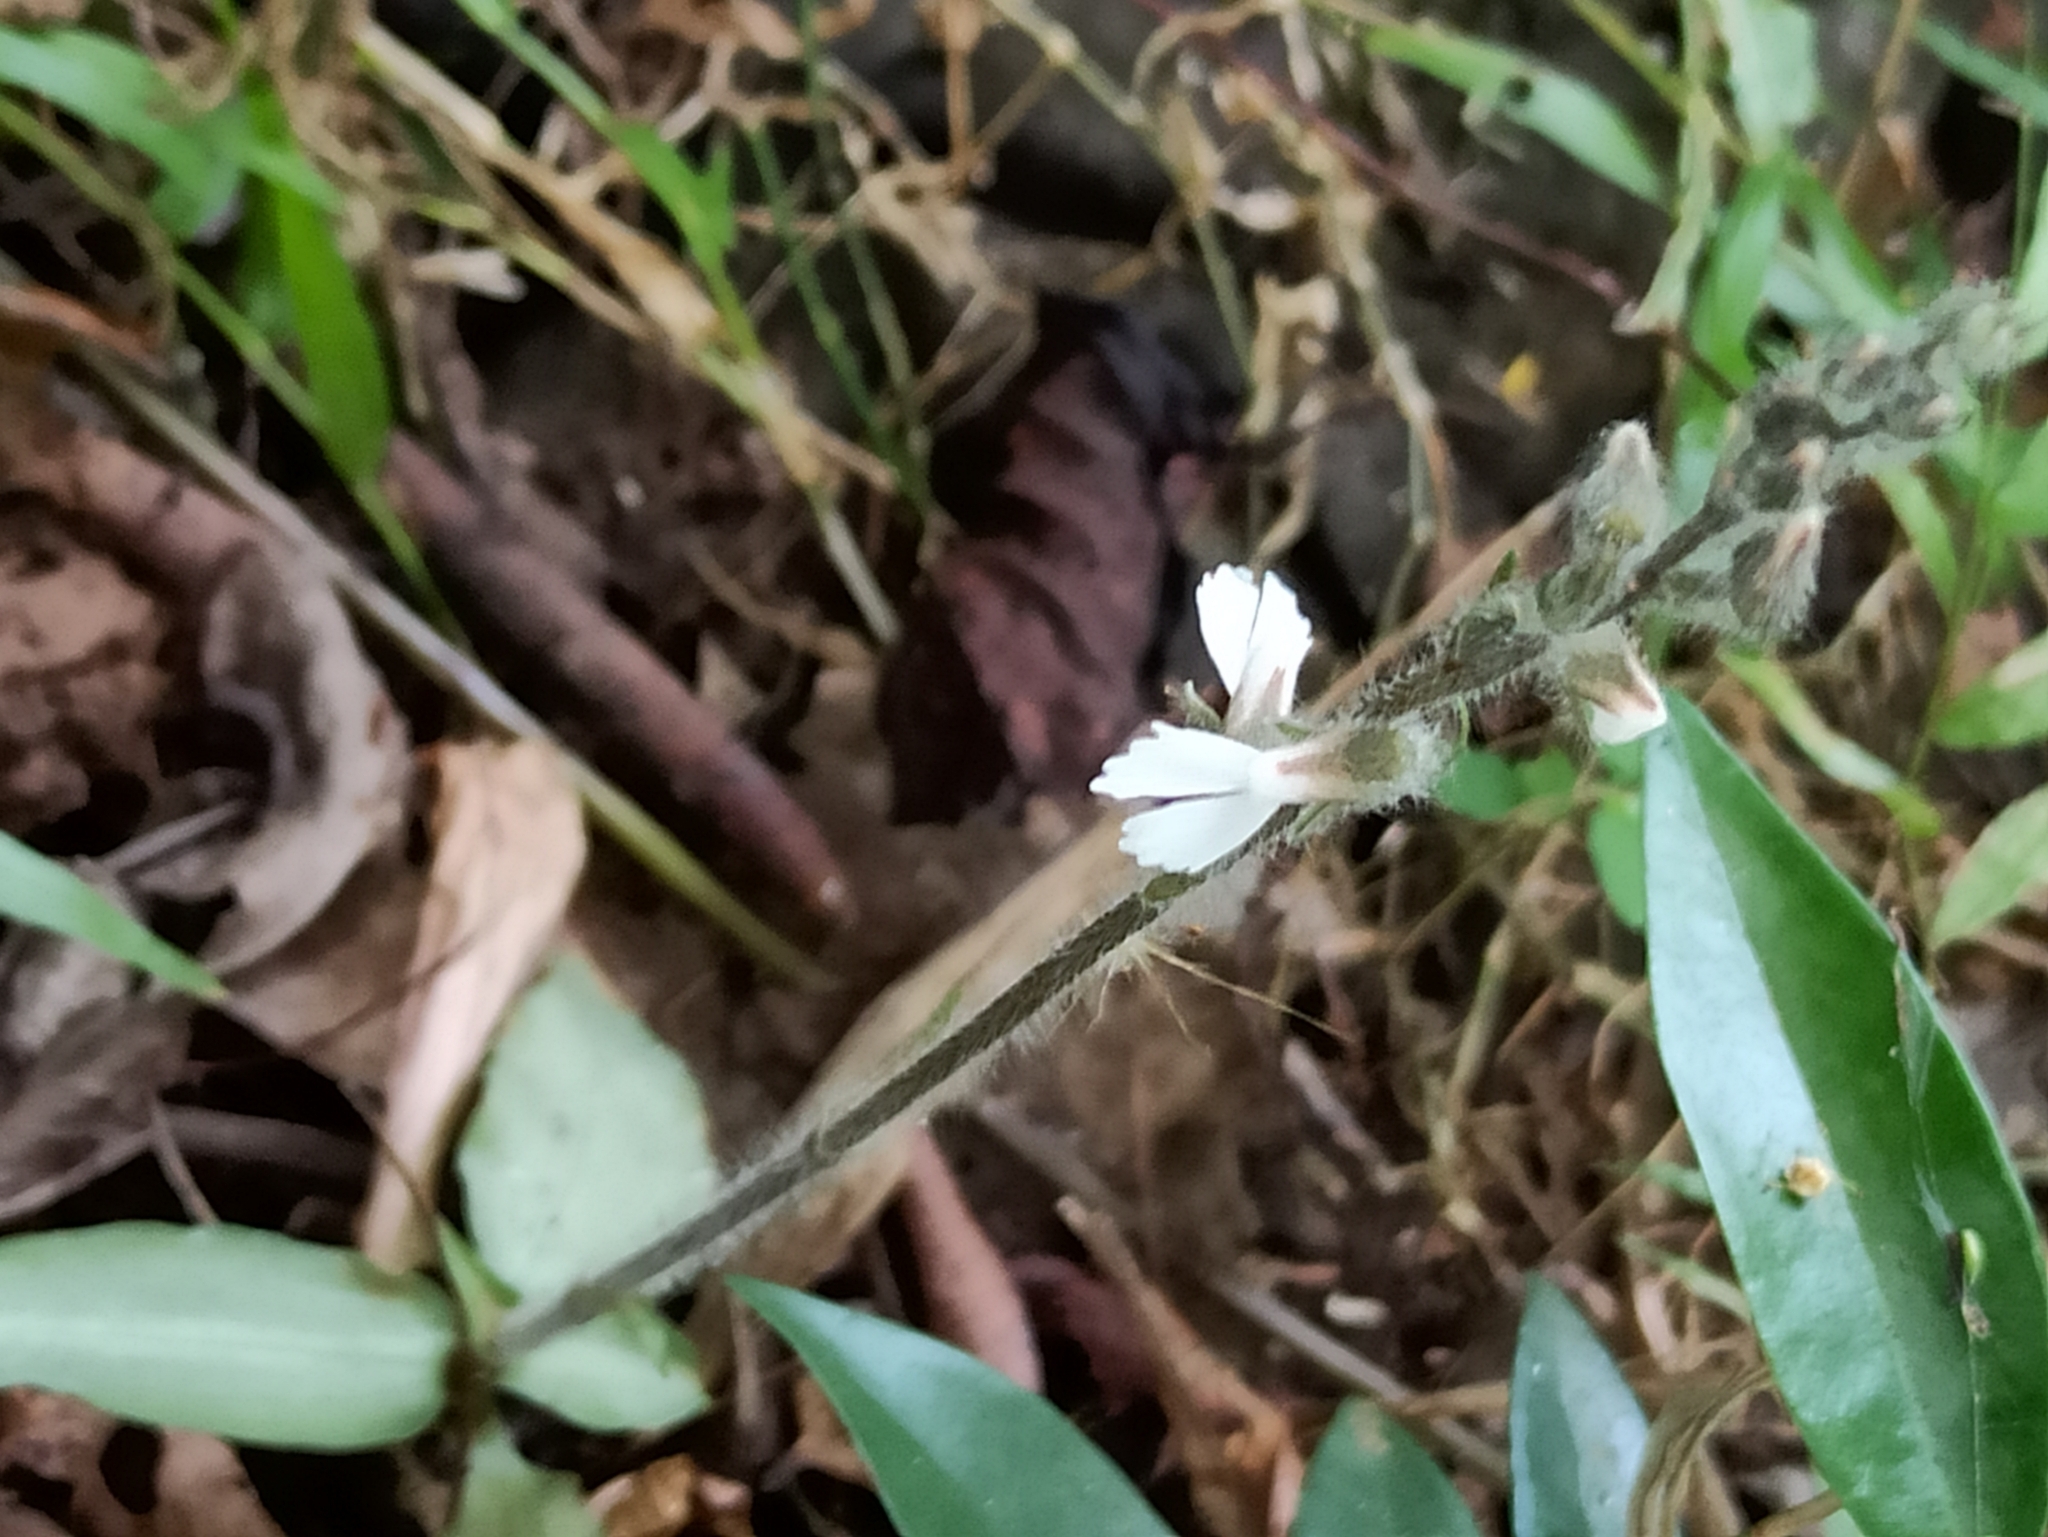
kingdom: Plantae
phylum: Tracheophyta
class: Liliopsida
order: Asparagales
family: Orchidaceae
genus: Zeuxine
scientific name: Zeuxine longilabris
